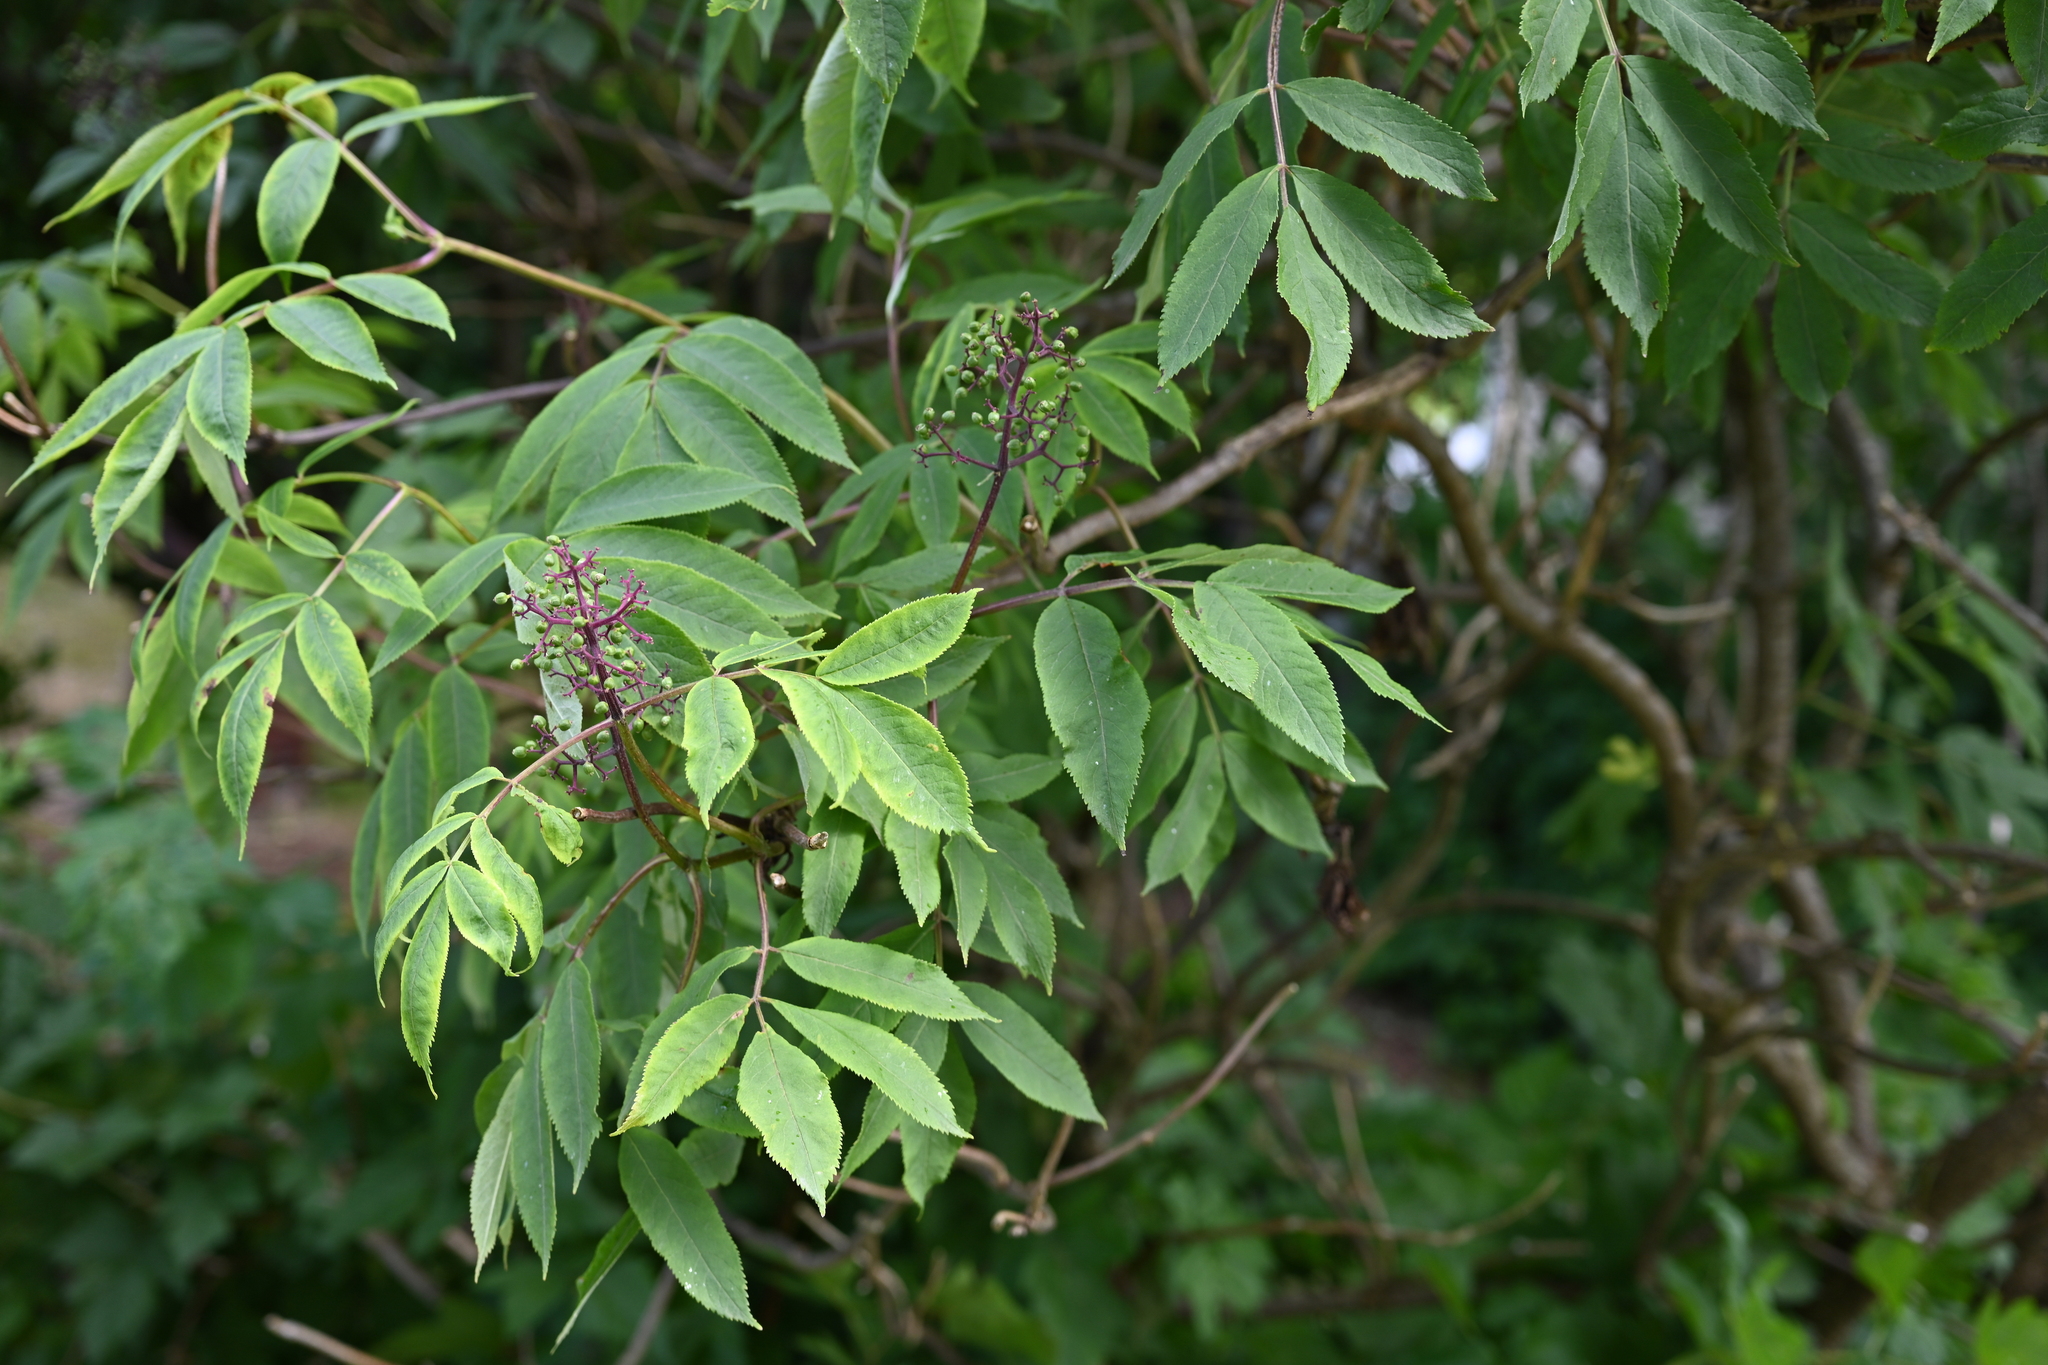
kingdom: Plantae
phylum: Tracheophyta
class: Magnoliopsida
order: Dipsacales
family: Viburnaceae
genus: Sambucus
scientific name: Sambucus racemosa
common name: Red-berried elder
